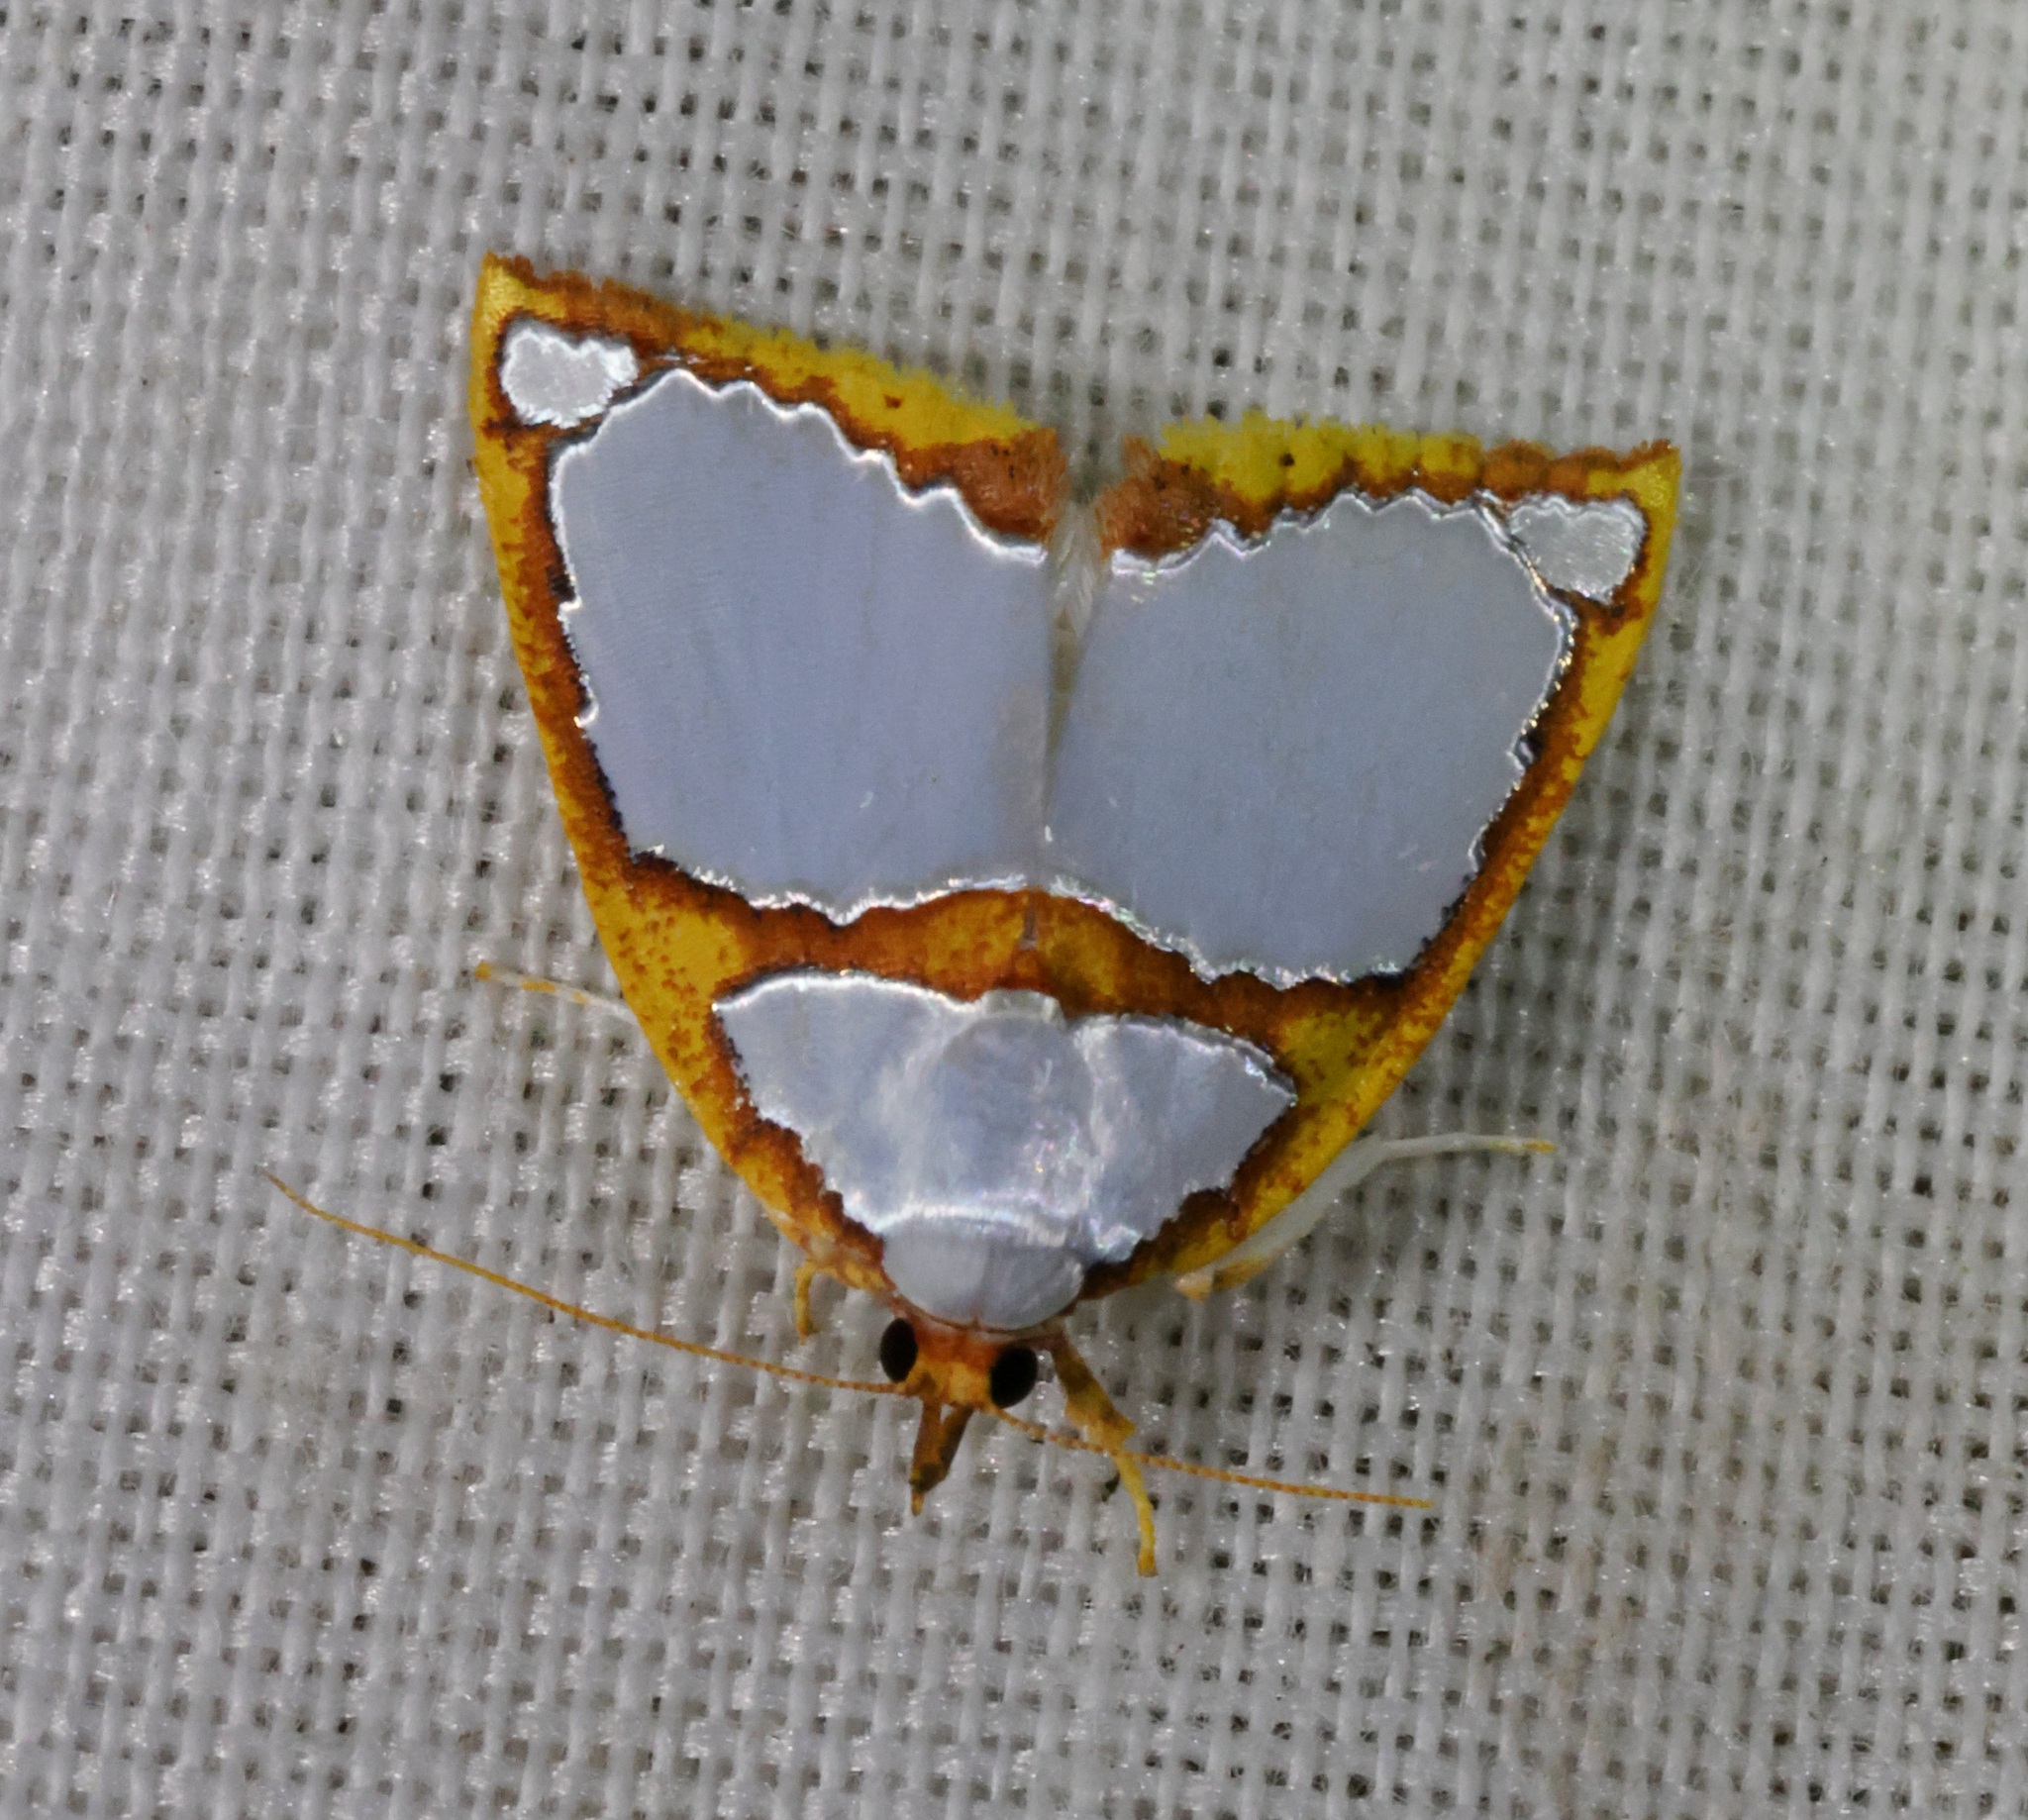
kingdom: Animalia
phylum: Arthropoda
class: Insecta
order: Lepidoptera
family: Nolidae
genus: Titulcia
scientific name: Titulcia confictella
